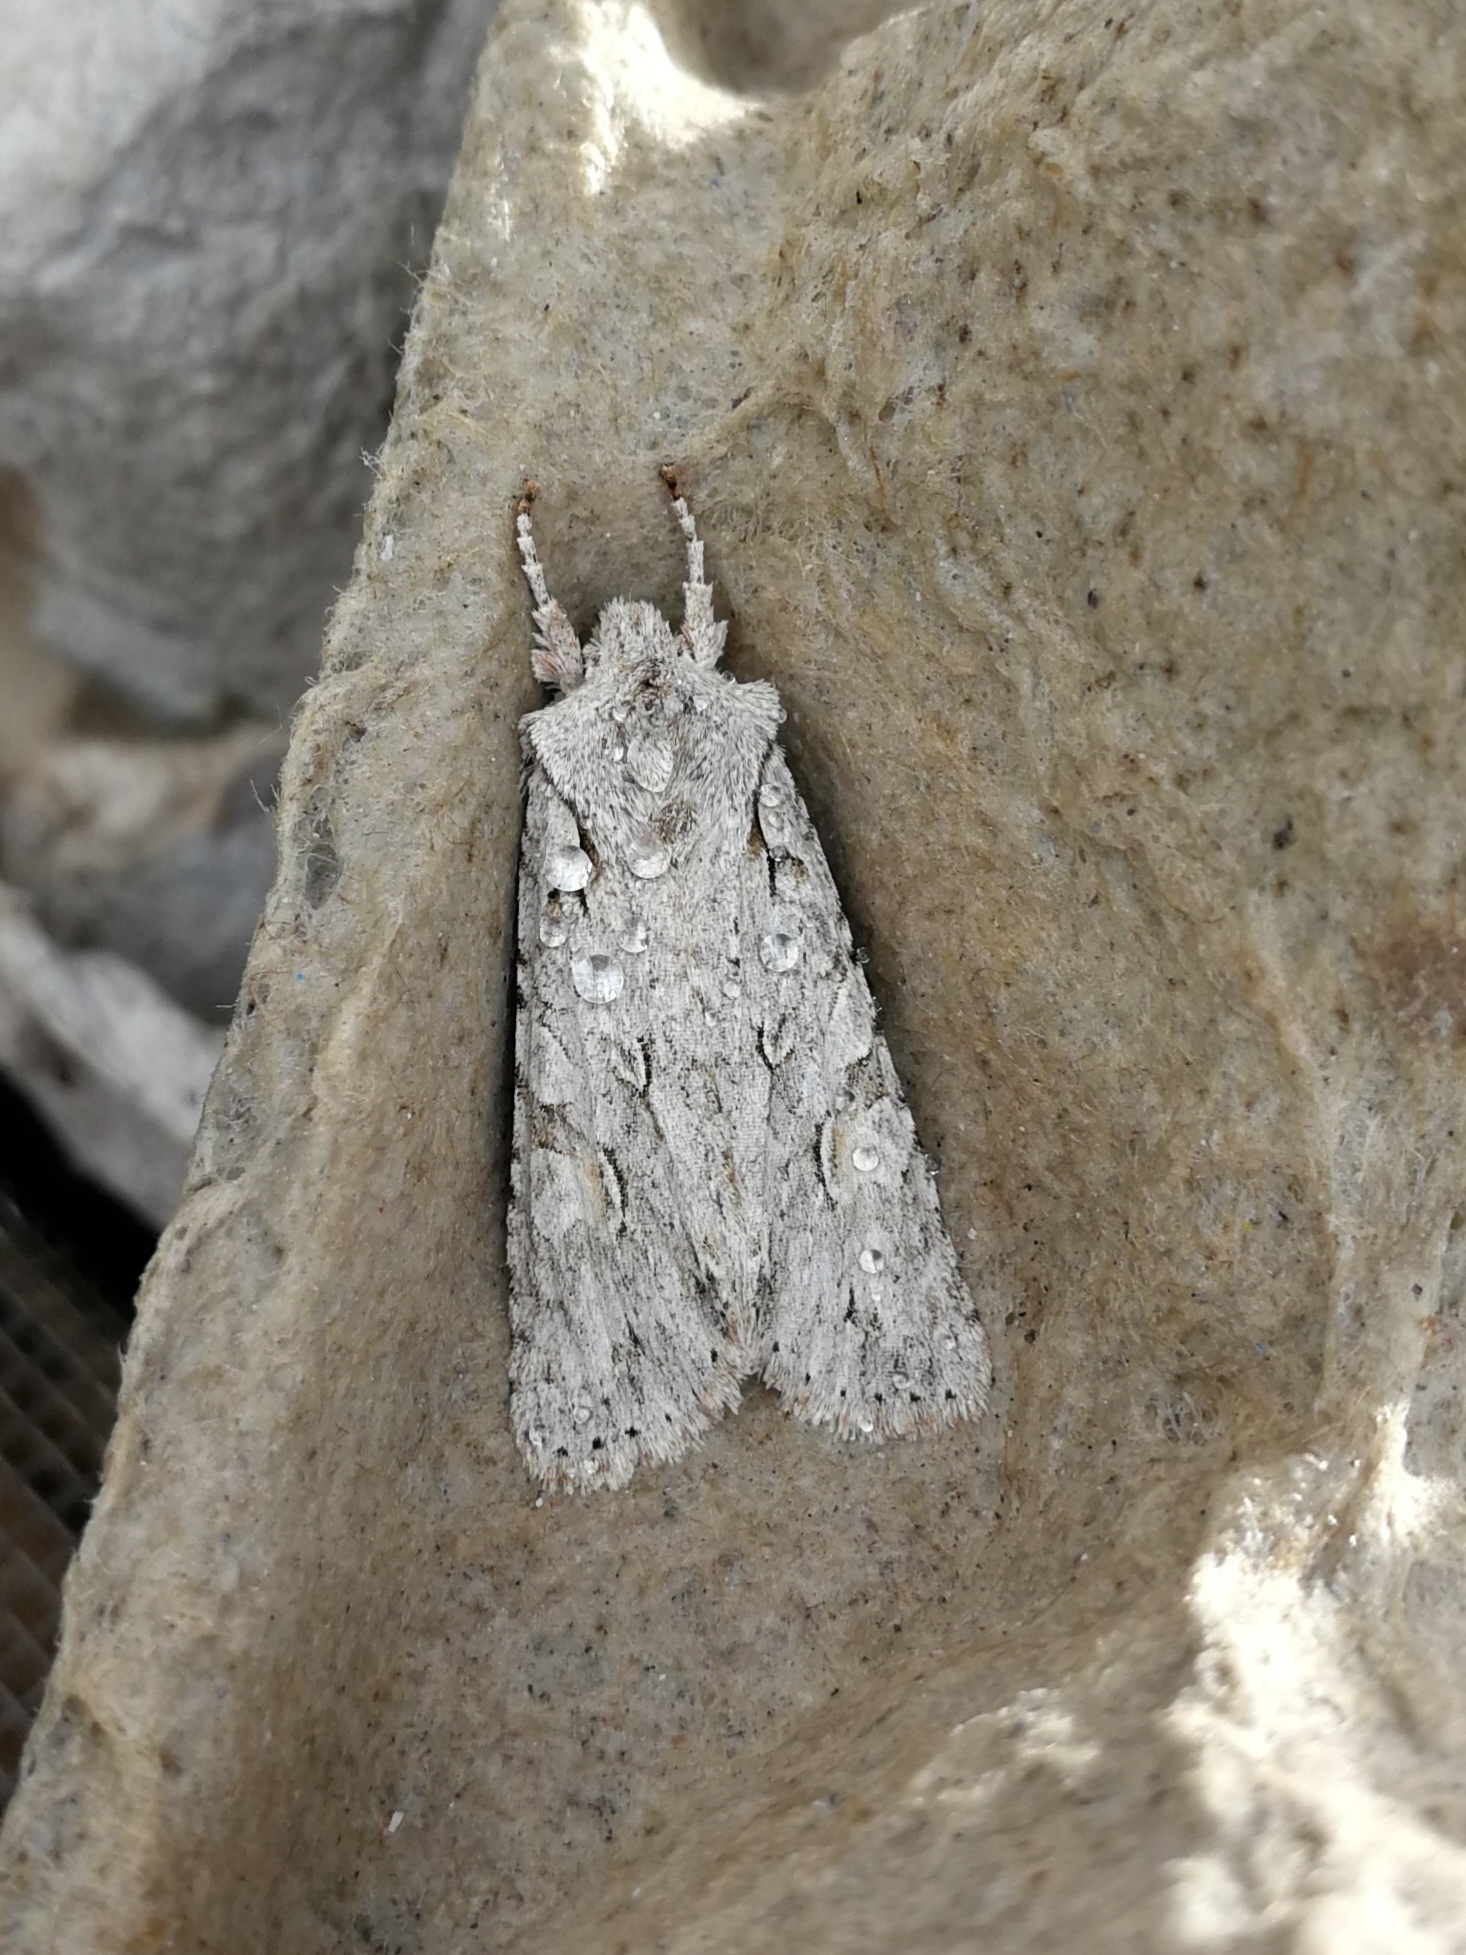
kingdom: Animalia
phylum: Arthropoda
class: Insecta
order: Lepidoptera
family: Noctuidae
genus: Lithophane
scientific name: Lithophane ornitopus
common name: Grey shoulder-knot
